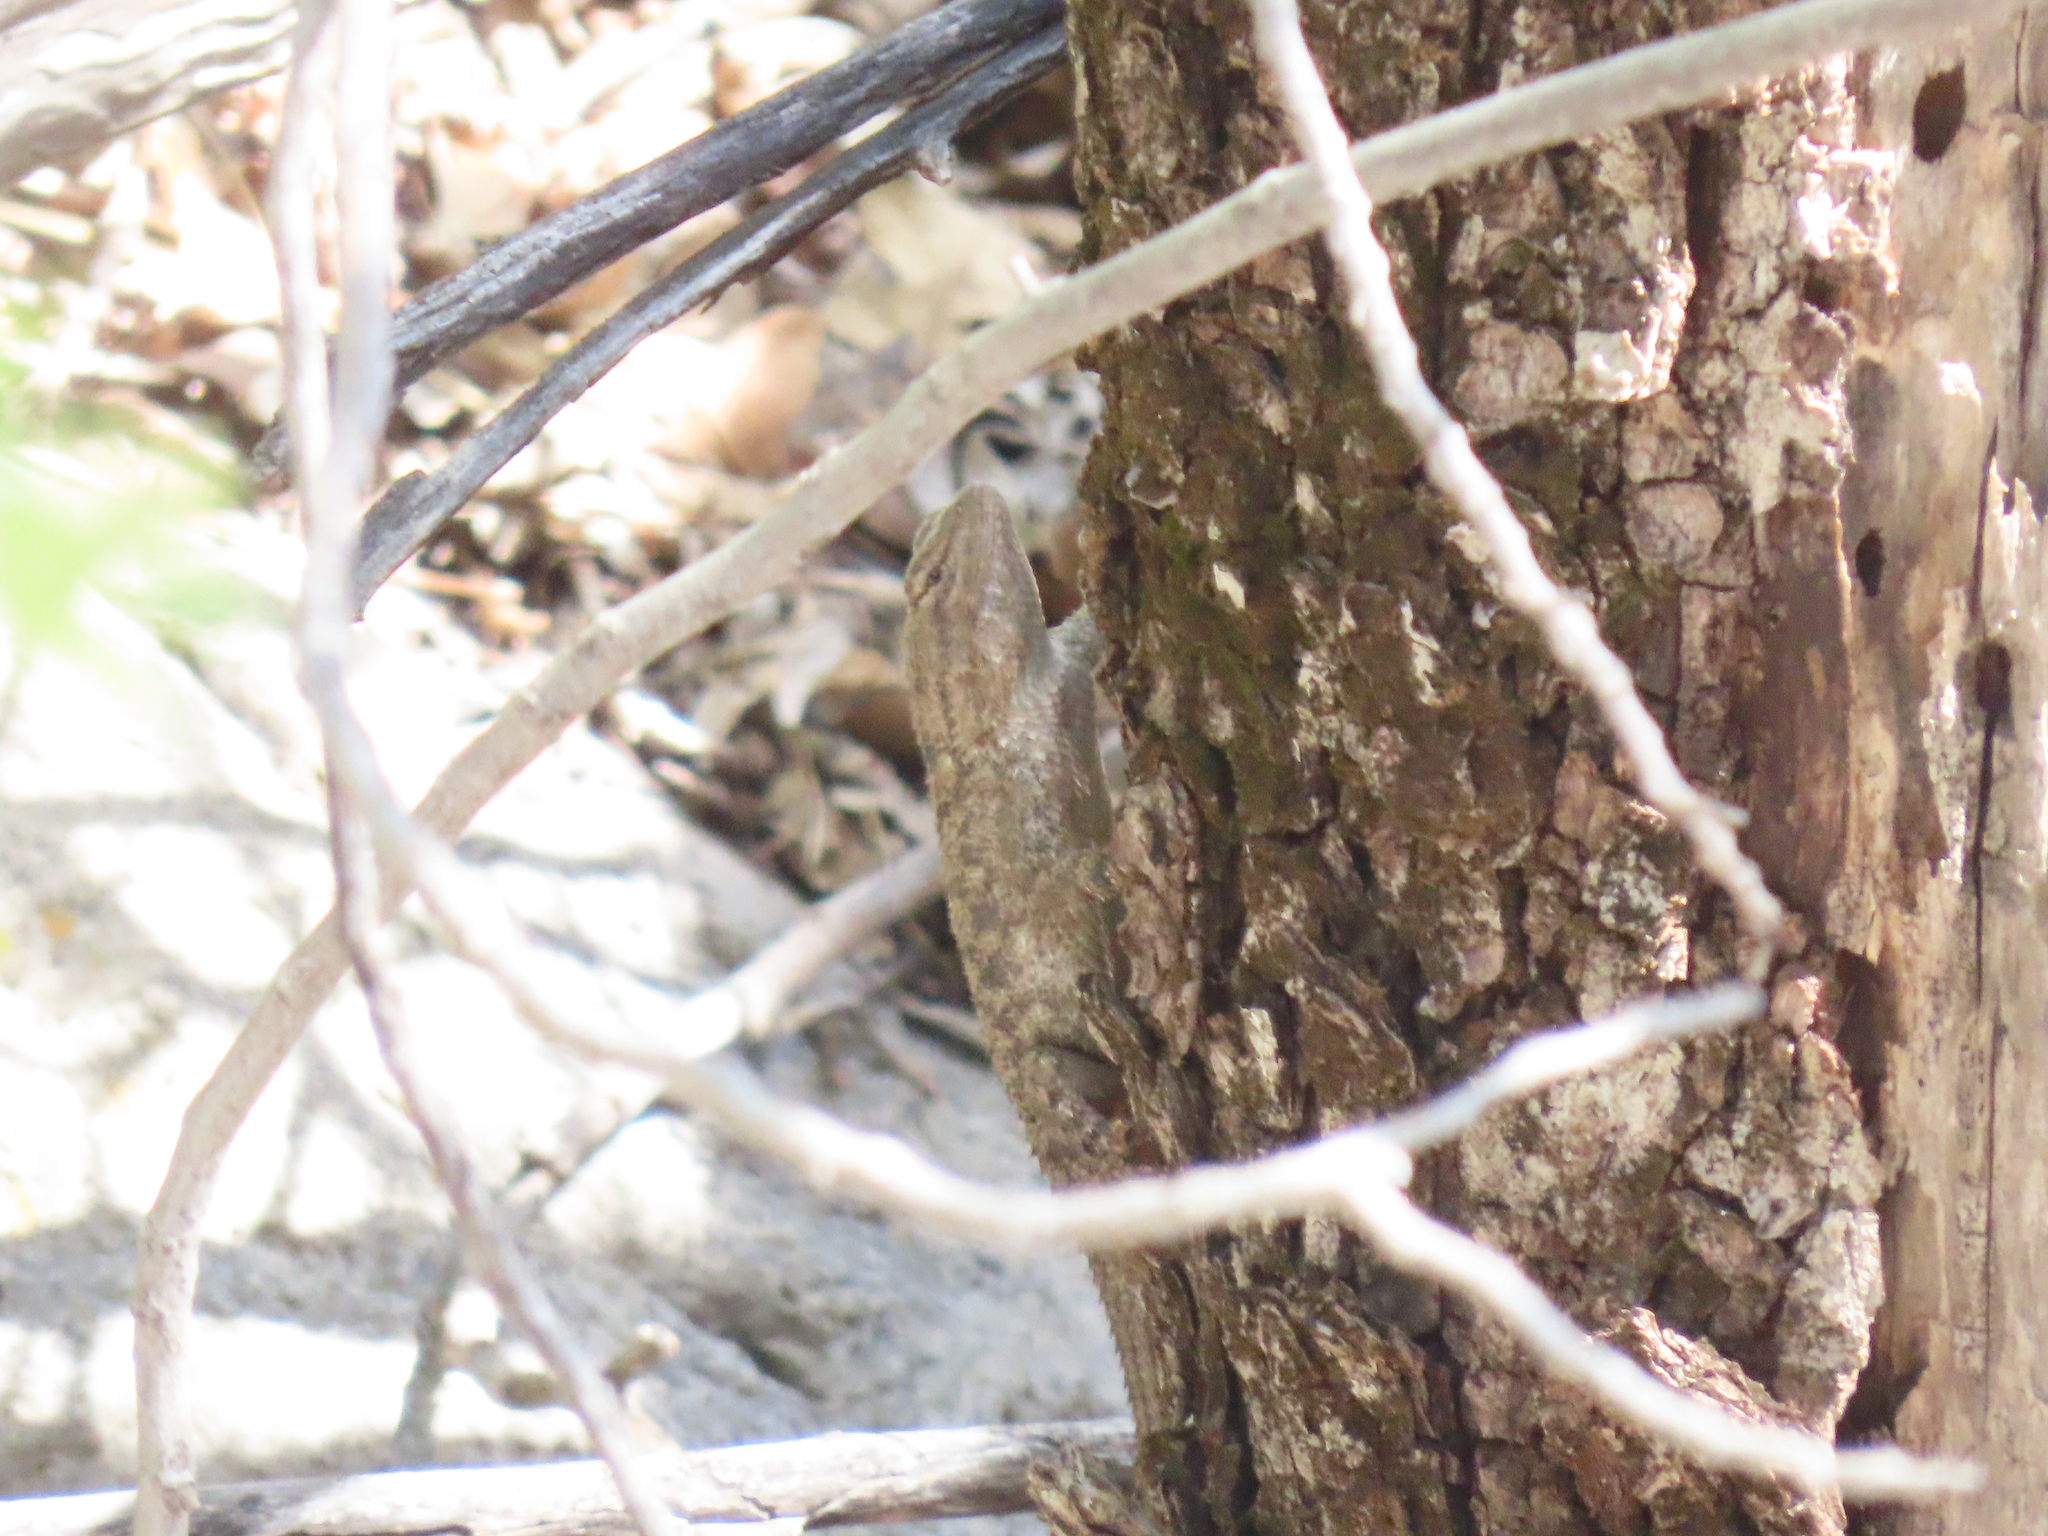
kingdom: Animalia
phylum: Chordata
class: Squamata
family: Phrynosomatidae
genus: Sceloporus
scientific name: Sceloporus clarkii
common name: Clark's spiny lizard
